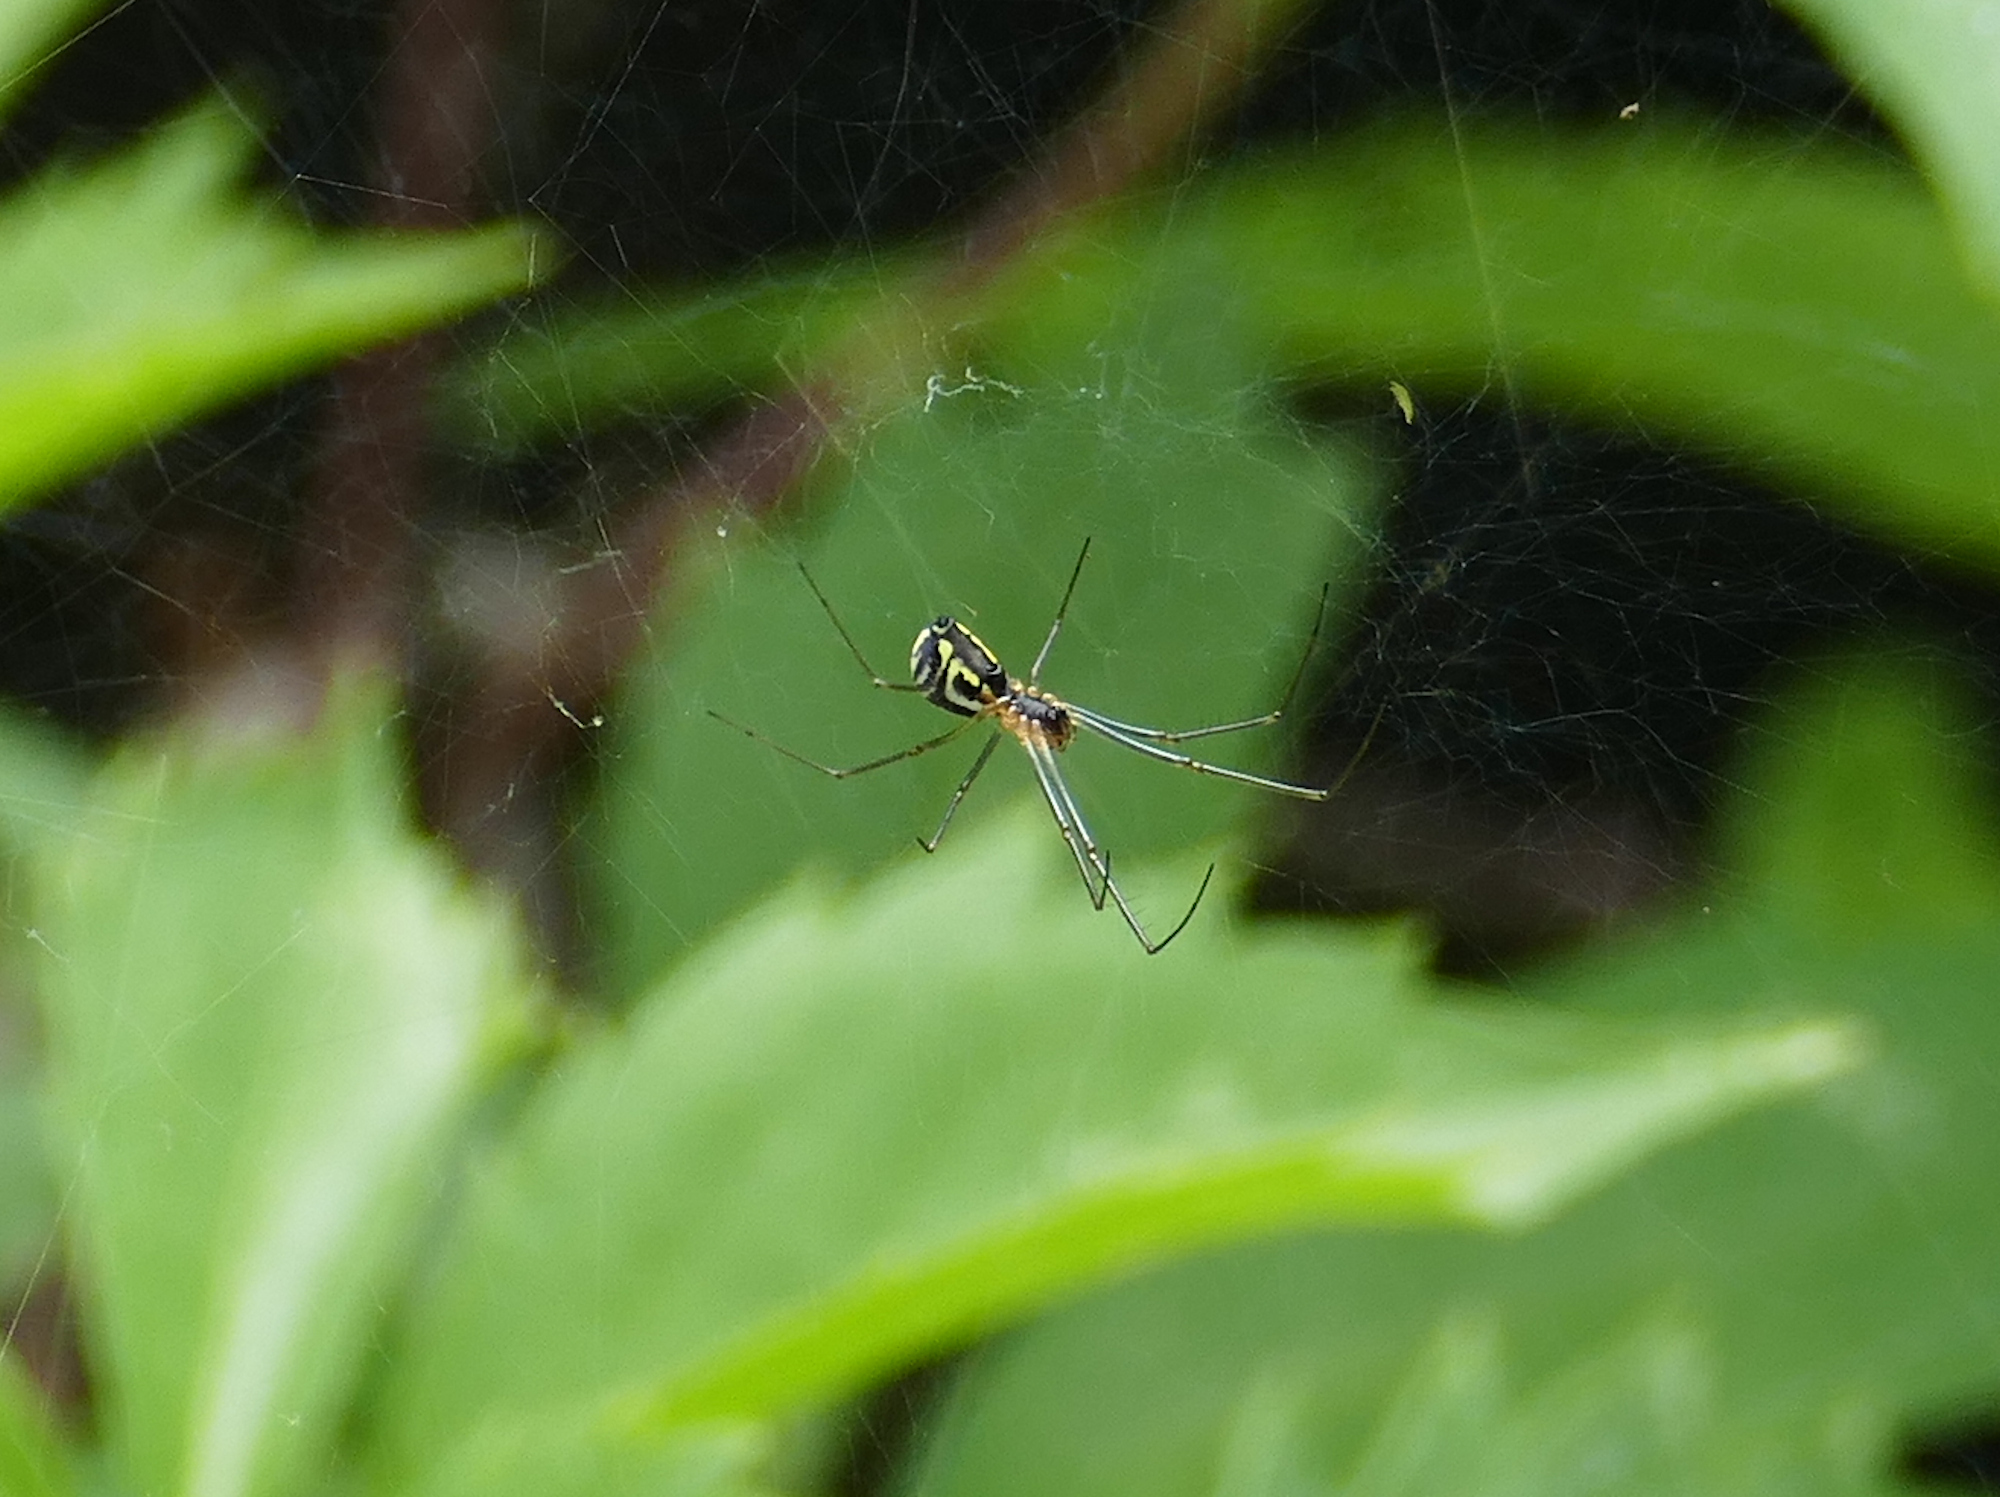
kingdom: Animalia
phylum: Arthropoda
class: Arachnida
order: Araneae
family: Linyphiidae
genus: Neriene
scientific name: Neriene radiata
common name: Filmy dome spider
